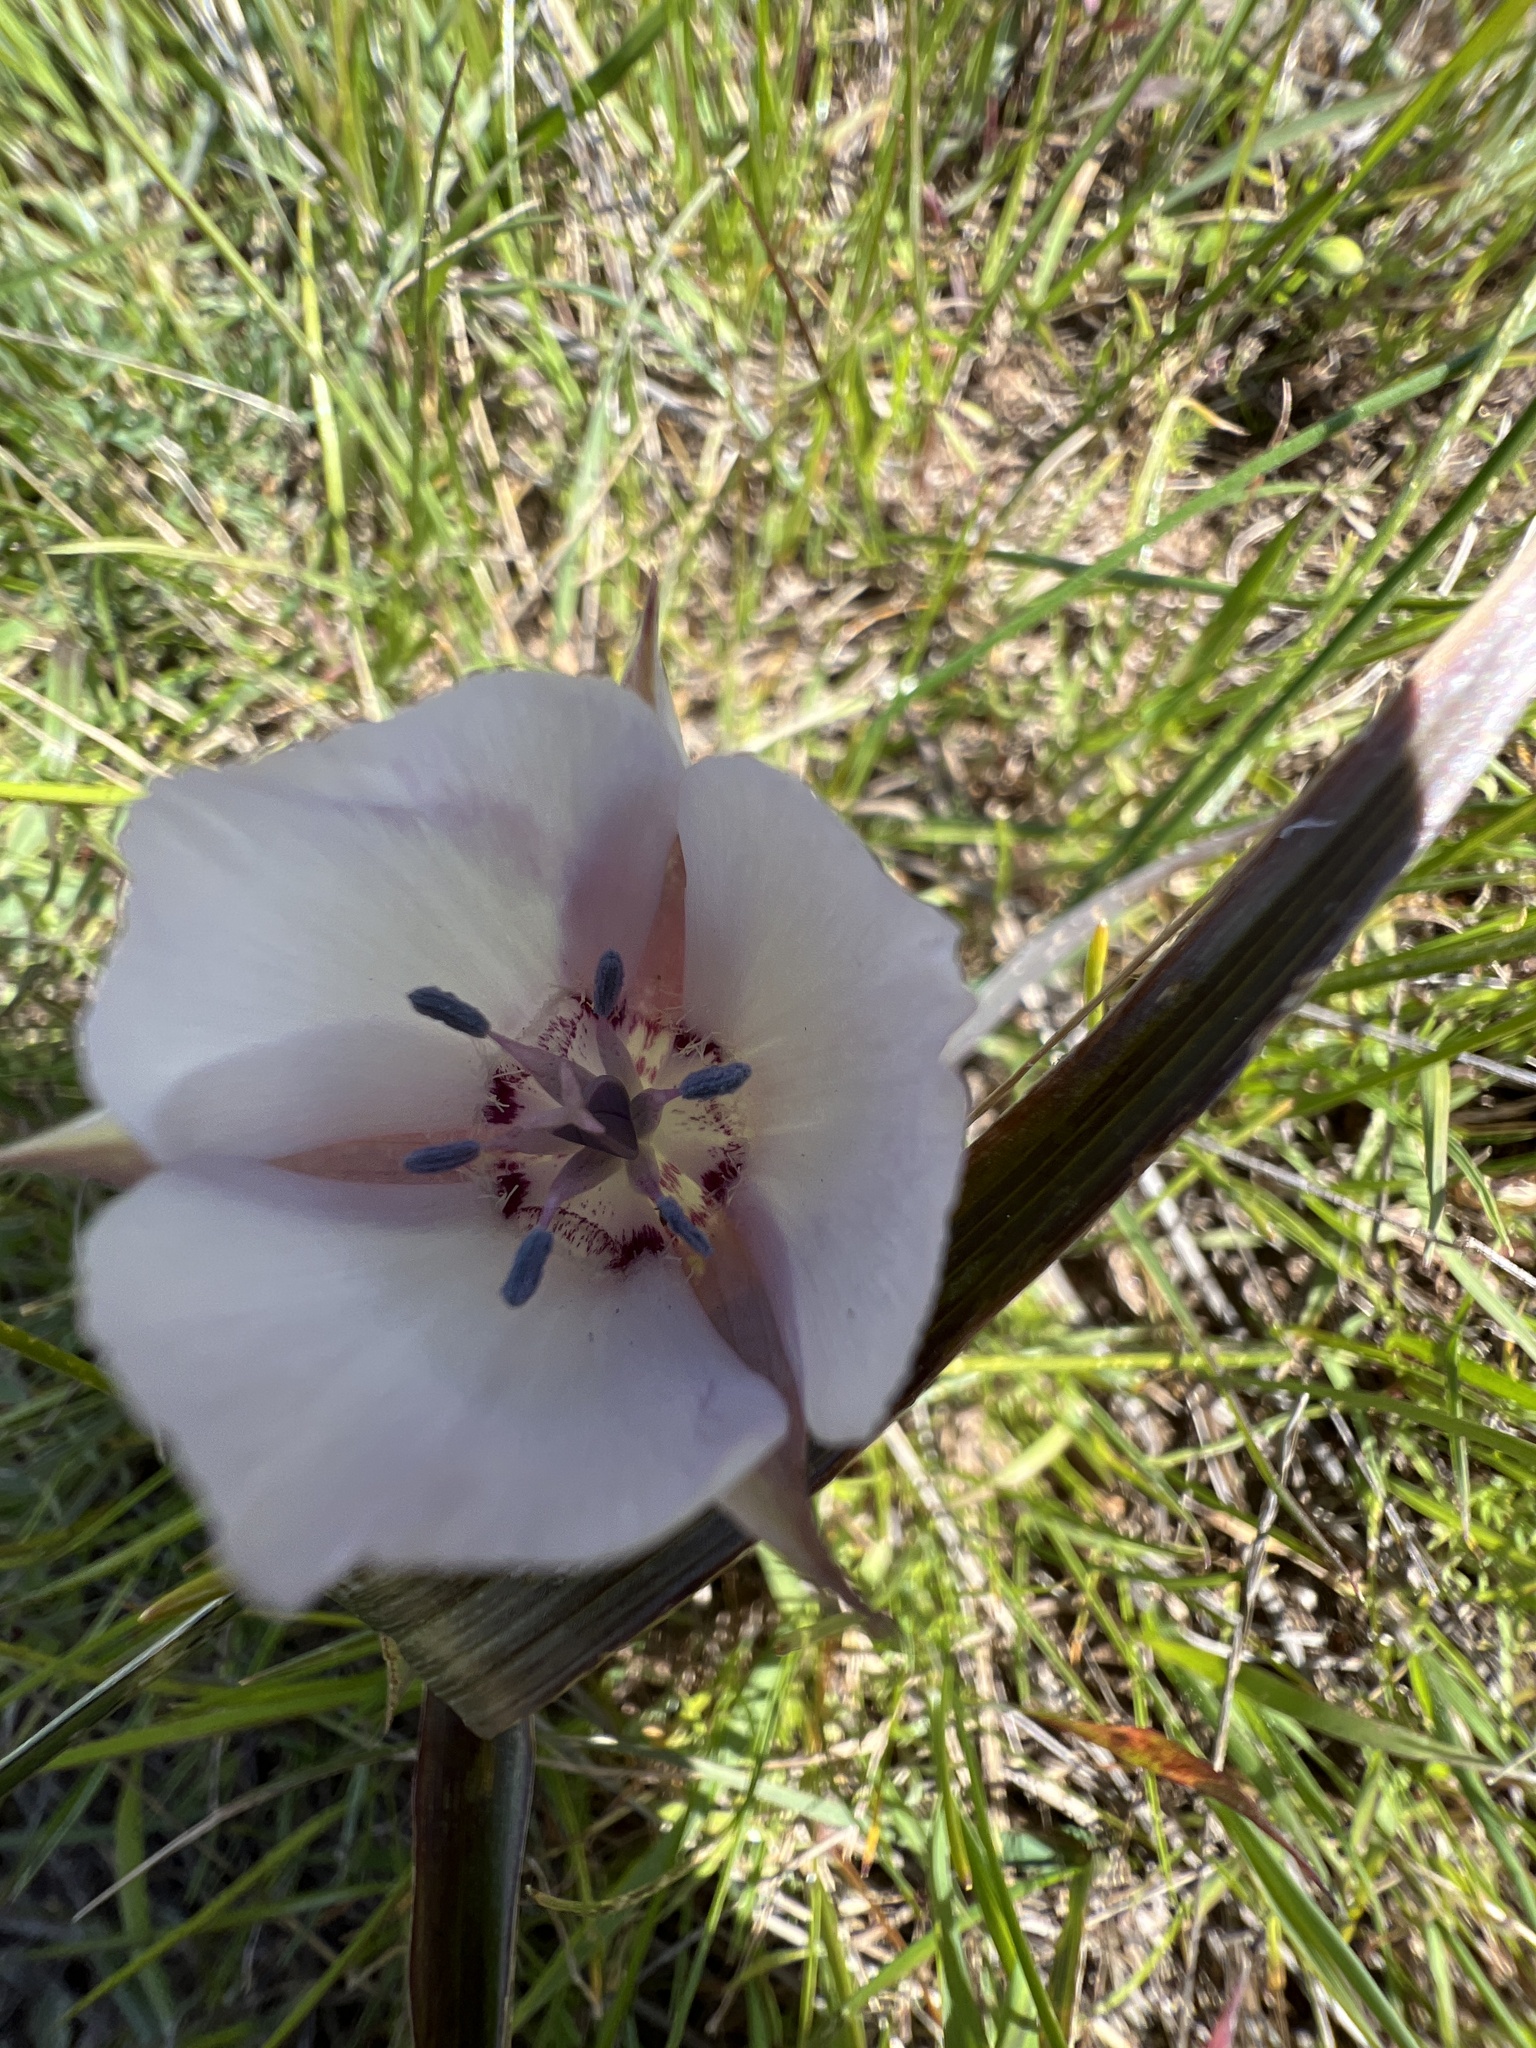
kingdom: Plantae
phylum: Tracheophyta
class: Liliopsida
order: Liliales
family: Liliaceae
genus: Calochortus
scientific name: Calochortus umbellatus
